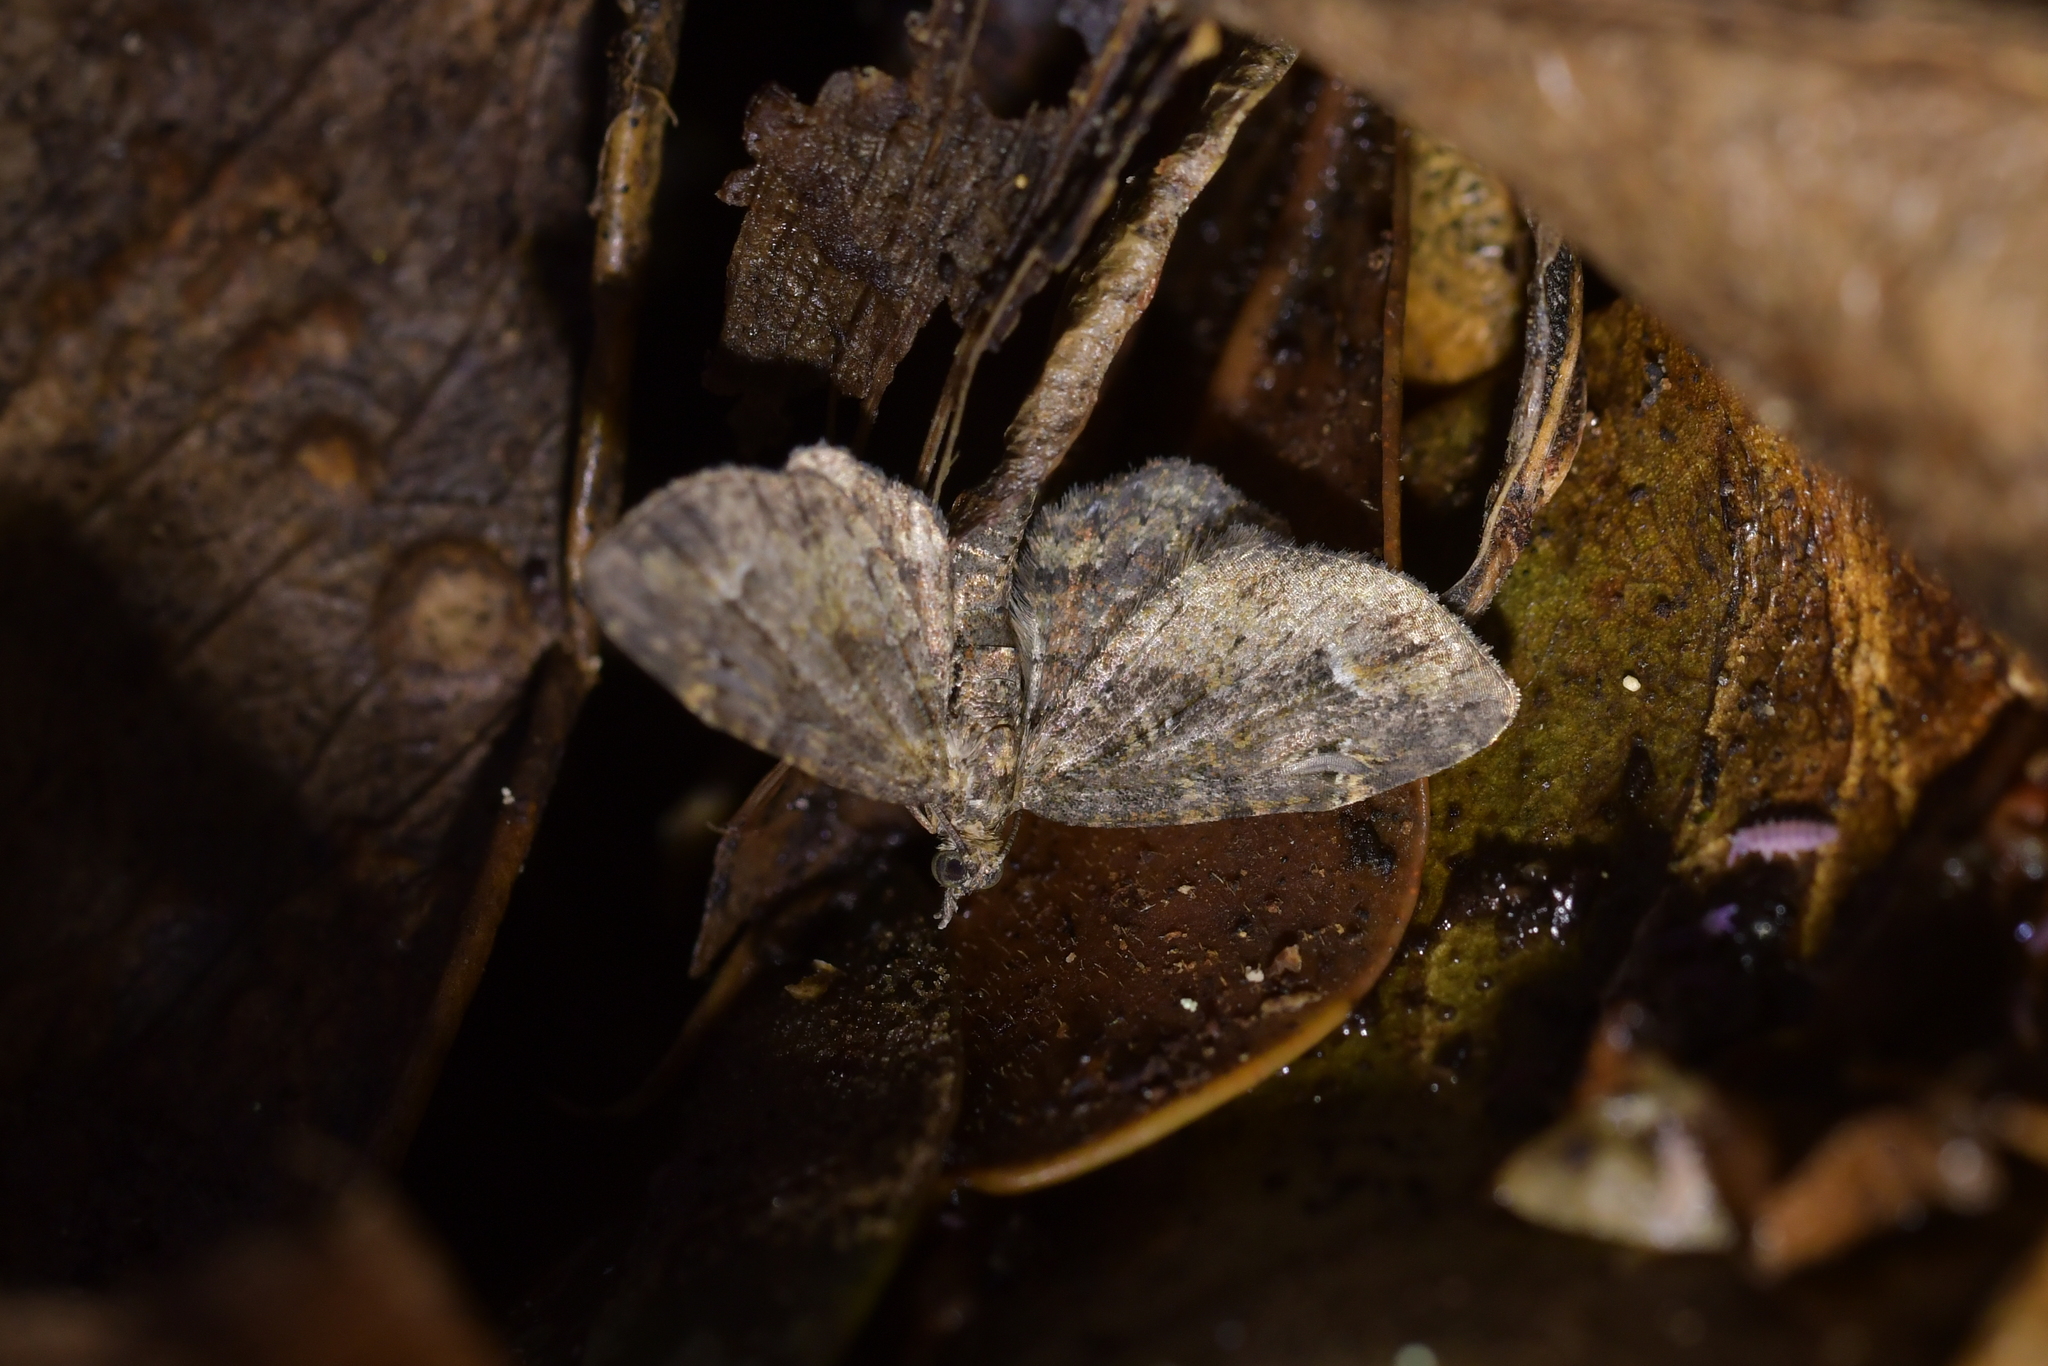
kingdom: Animalia
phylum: Arthropoda
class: Insecta
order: Lepidoptera
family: Geometridae
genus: Pasiphilodes
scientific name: Pasiphilodes testulata
